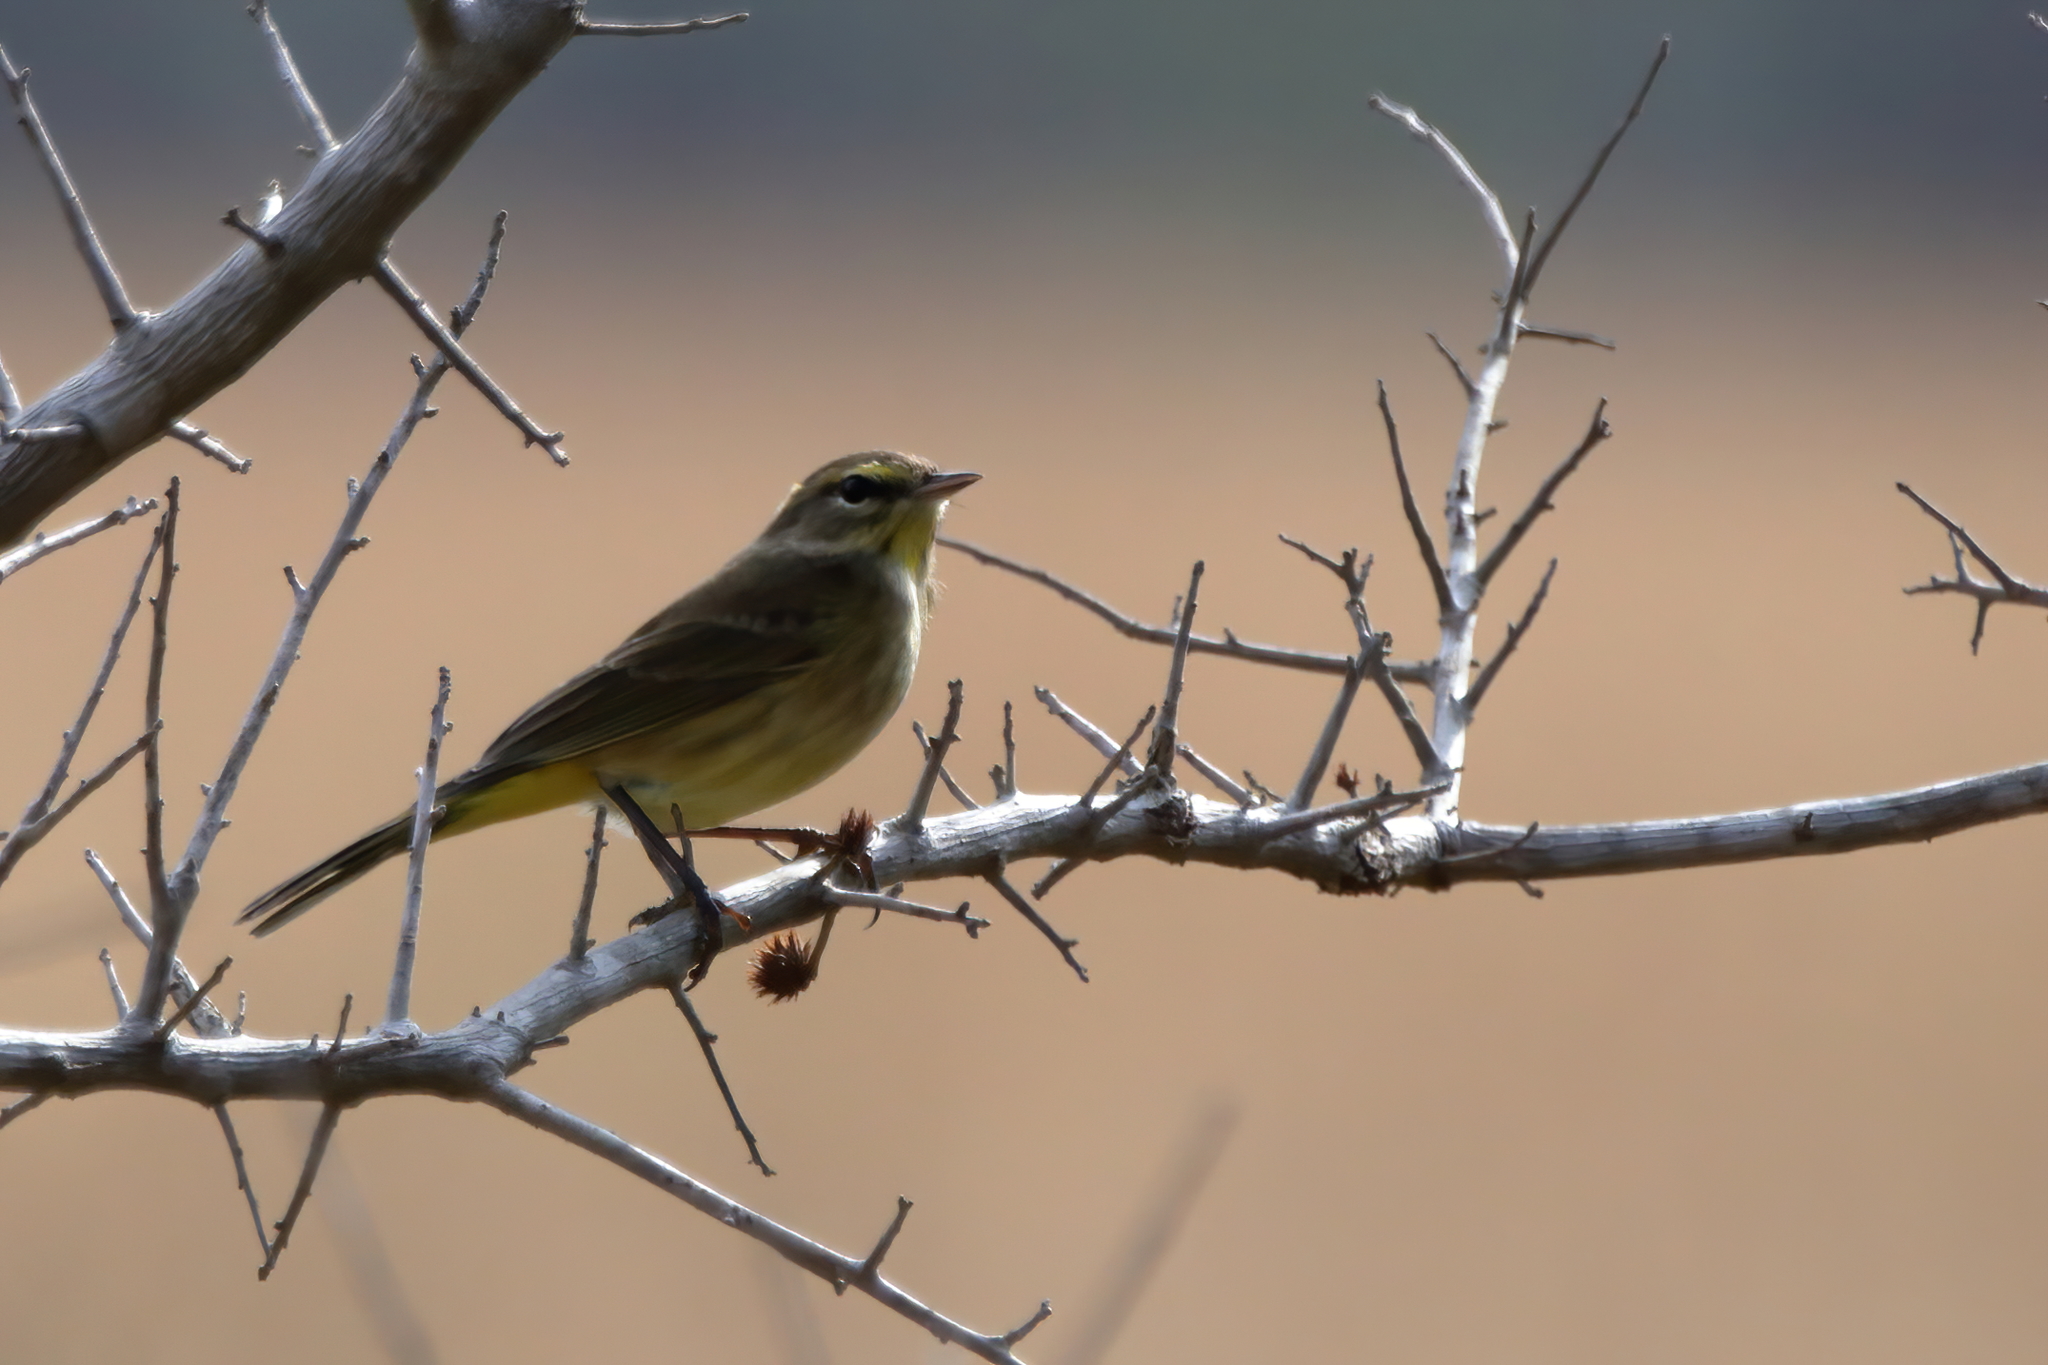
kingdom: Animalia
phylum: Chordata
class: Aves
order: Passeriformes
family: Parulidae
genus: Setophaga
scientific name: Setophaga palmarum
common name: Palm warbler
